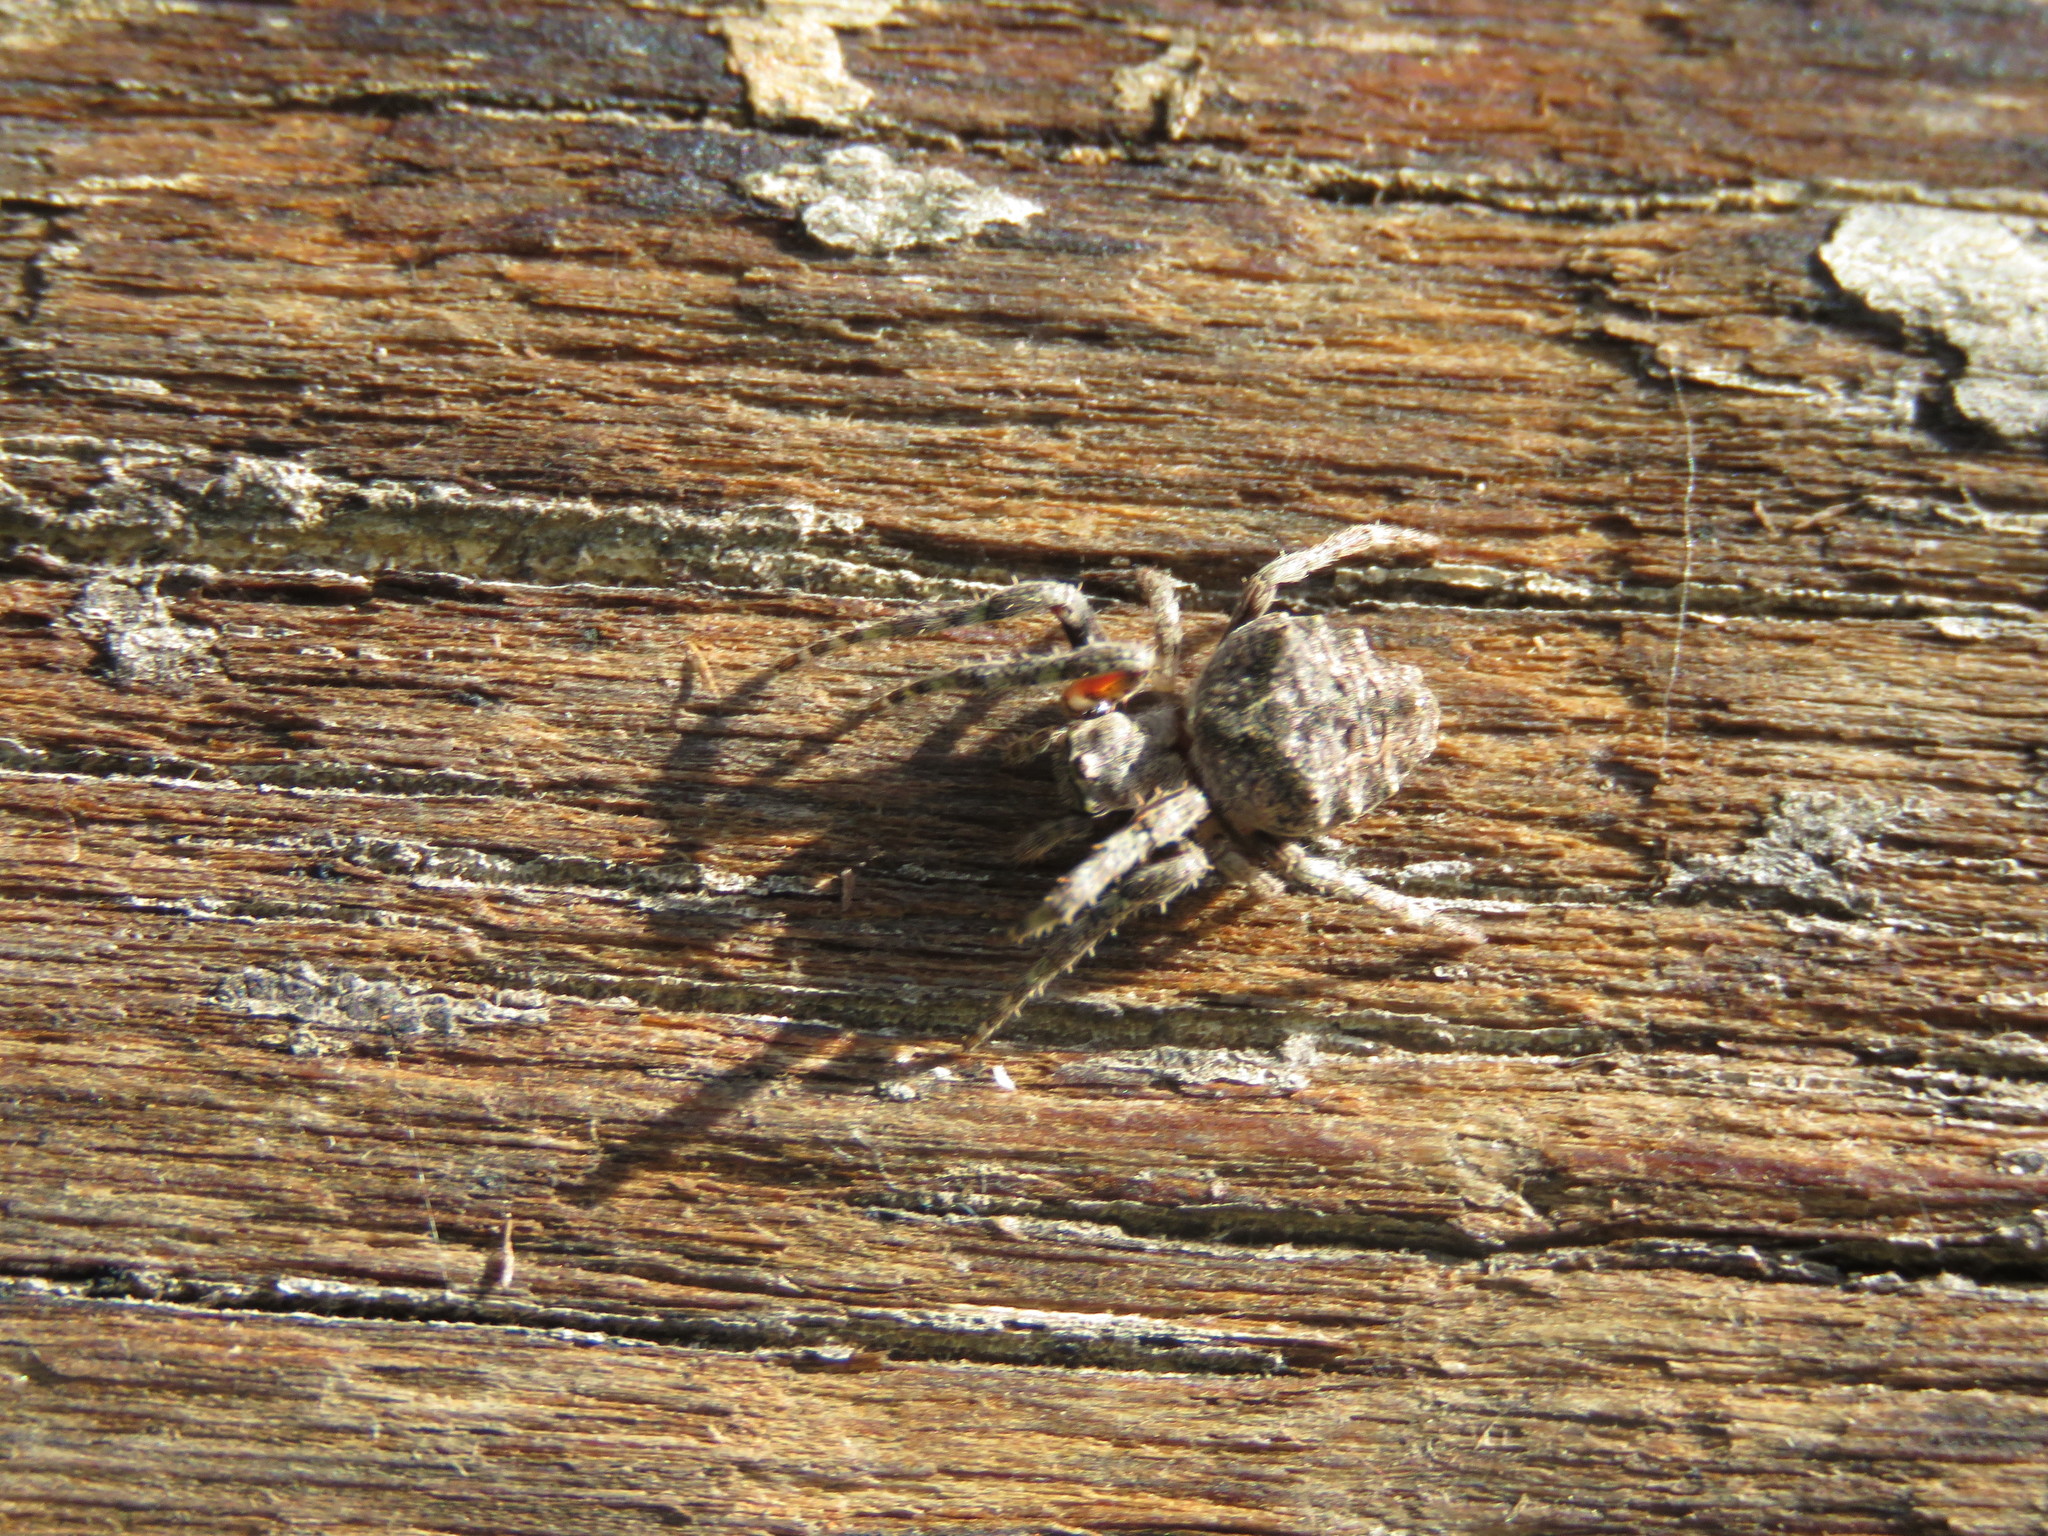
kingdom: Animalia
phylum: Arthropoda
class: Arachnida
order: Araneae
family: Araneidae
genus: Parawixia
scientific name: Parawixia audax
